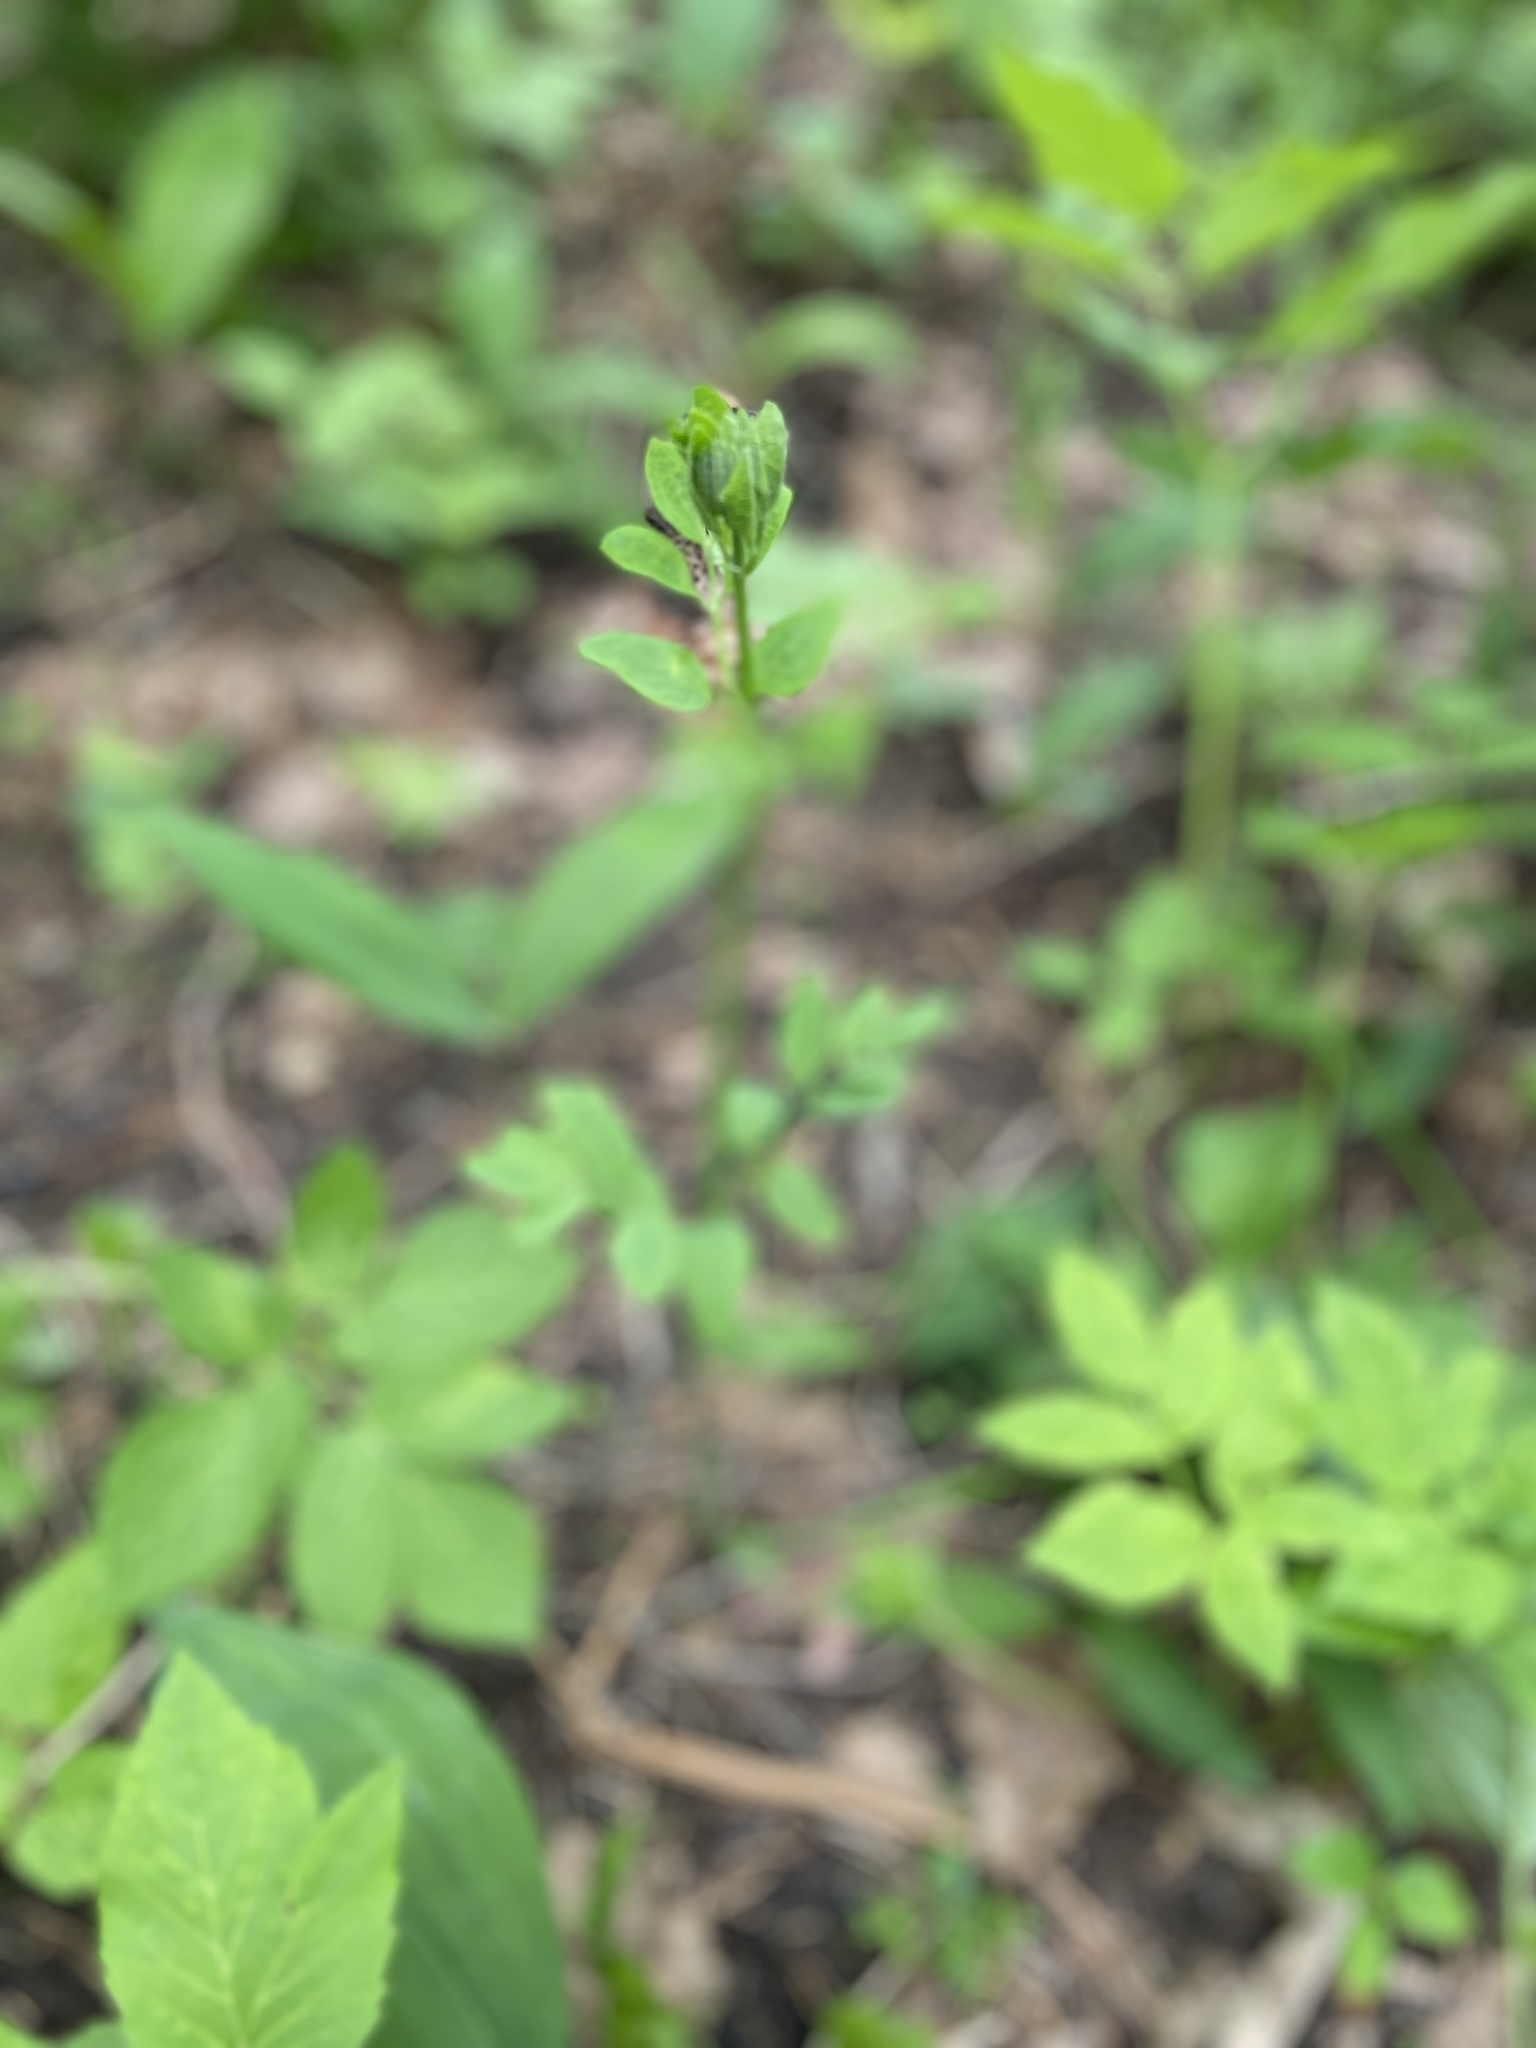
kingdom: Plantae
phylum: Tracheophyta
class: Magnoliopsida
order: Ranunculales
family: Ranunculaceae
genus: Clematis
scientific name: Clematis recta
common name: Ground clematis
